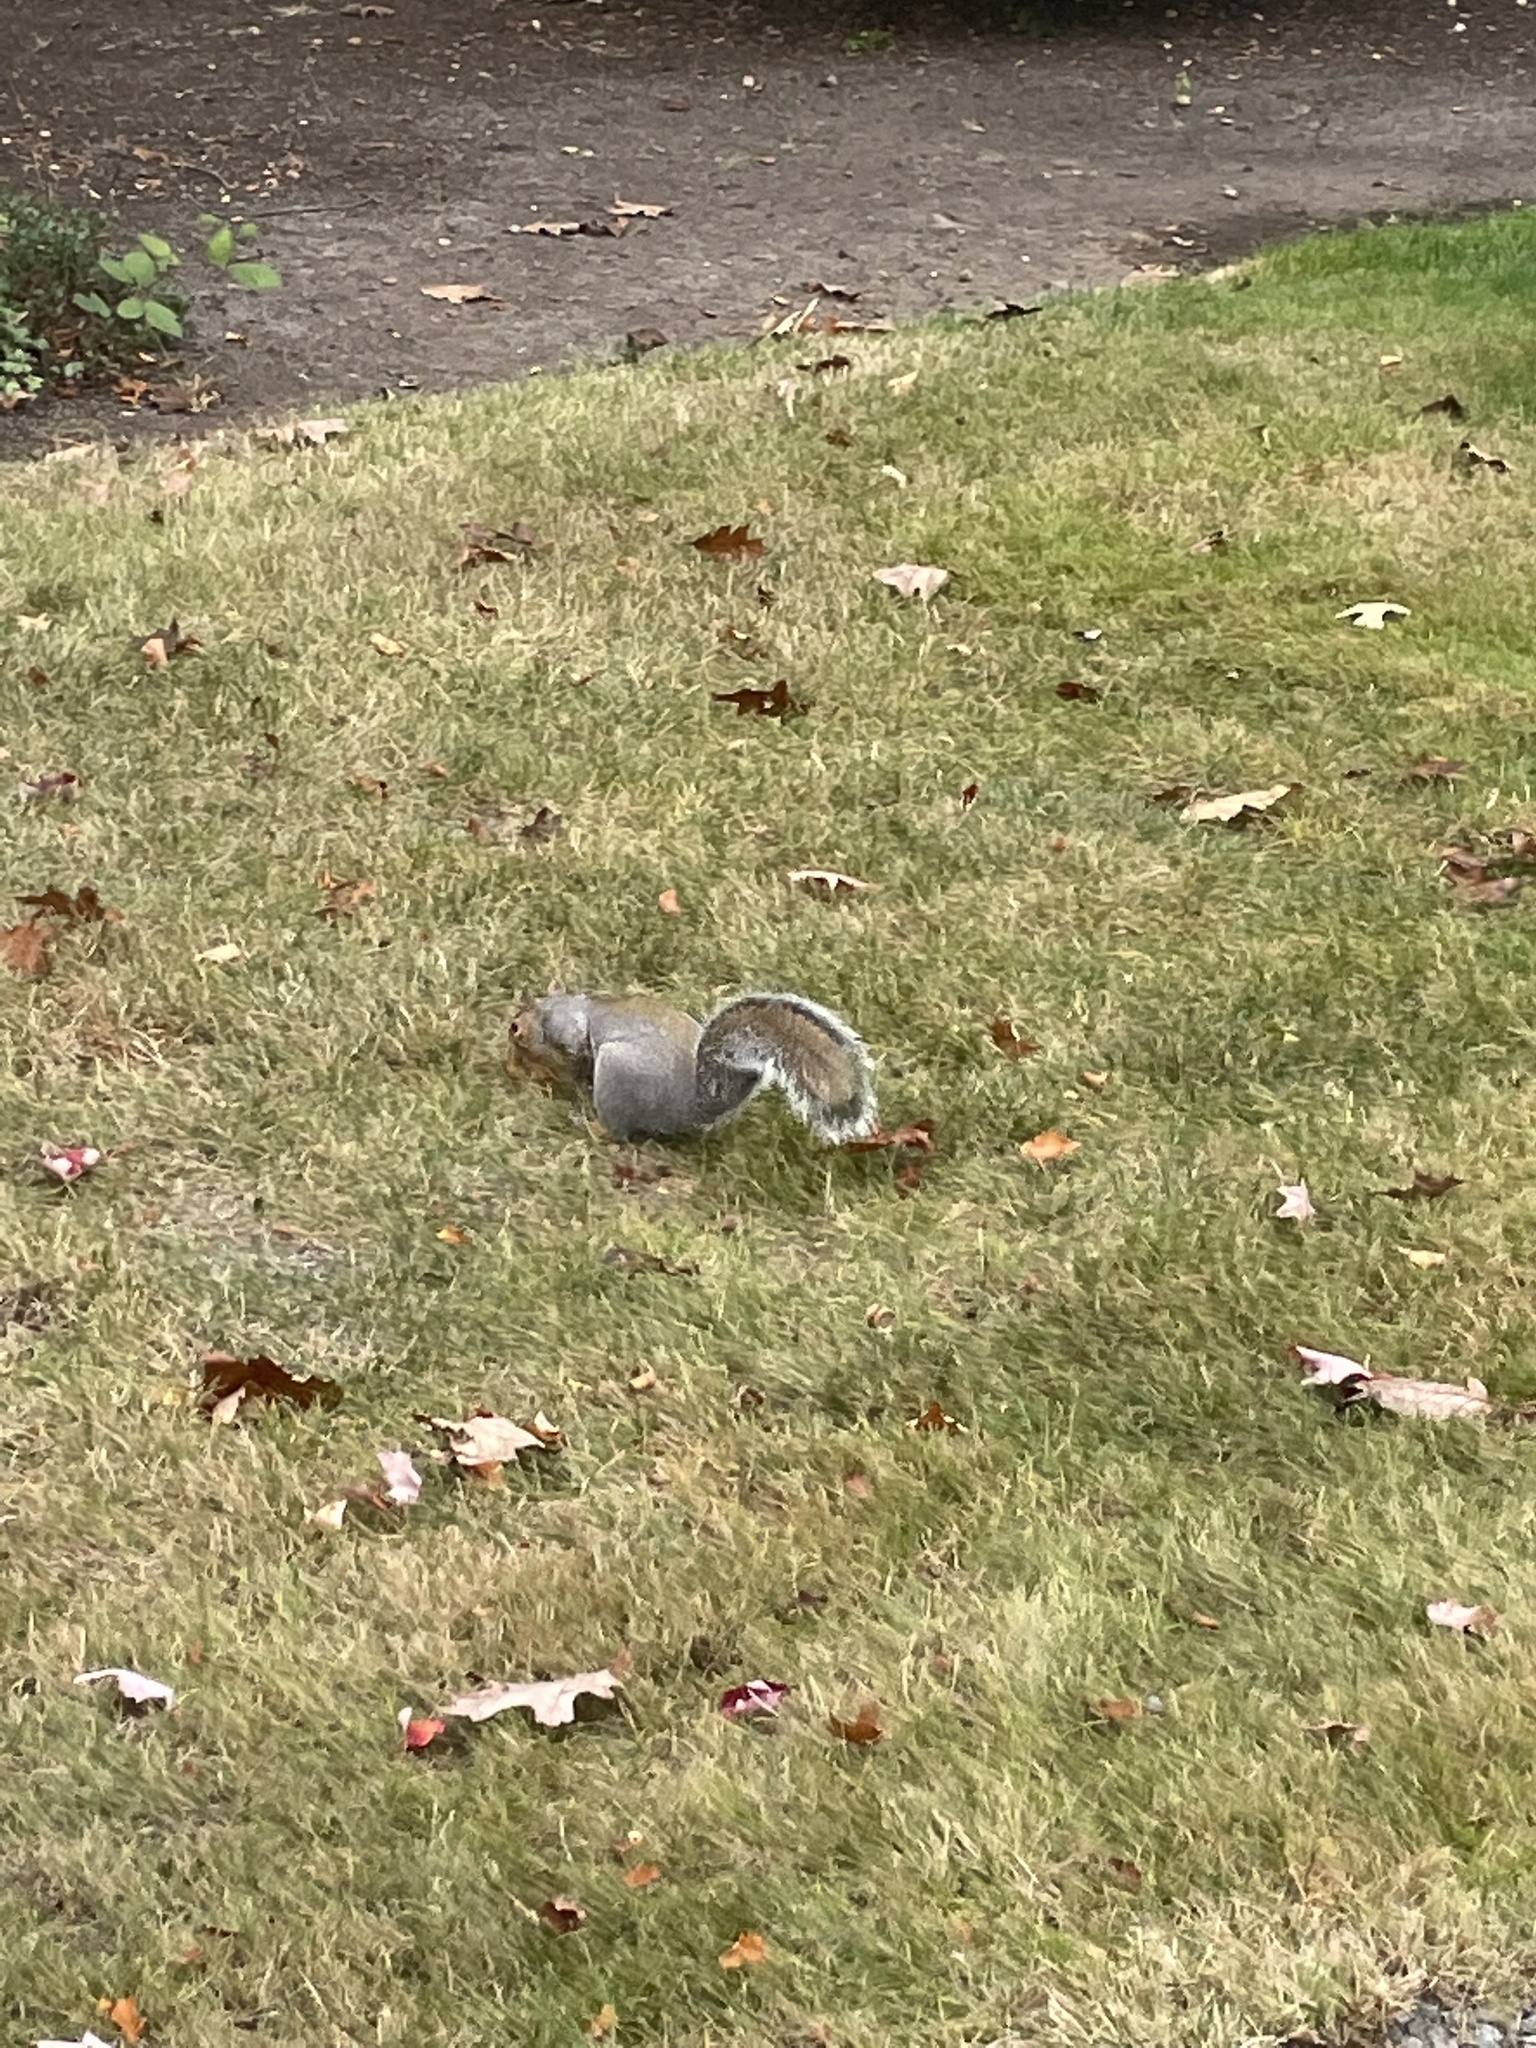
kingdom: Animalia
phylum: Chordata
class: Mammalia
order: Rodentia
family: Sciuridae
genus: Sciurus
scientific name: Sciurus carolinensis
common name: Eastern gray squirrel
